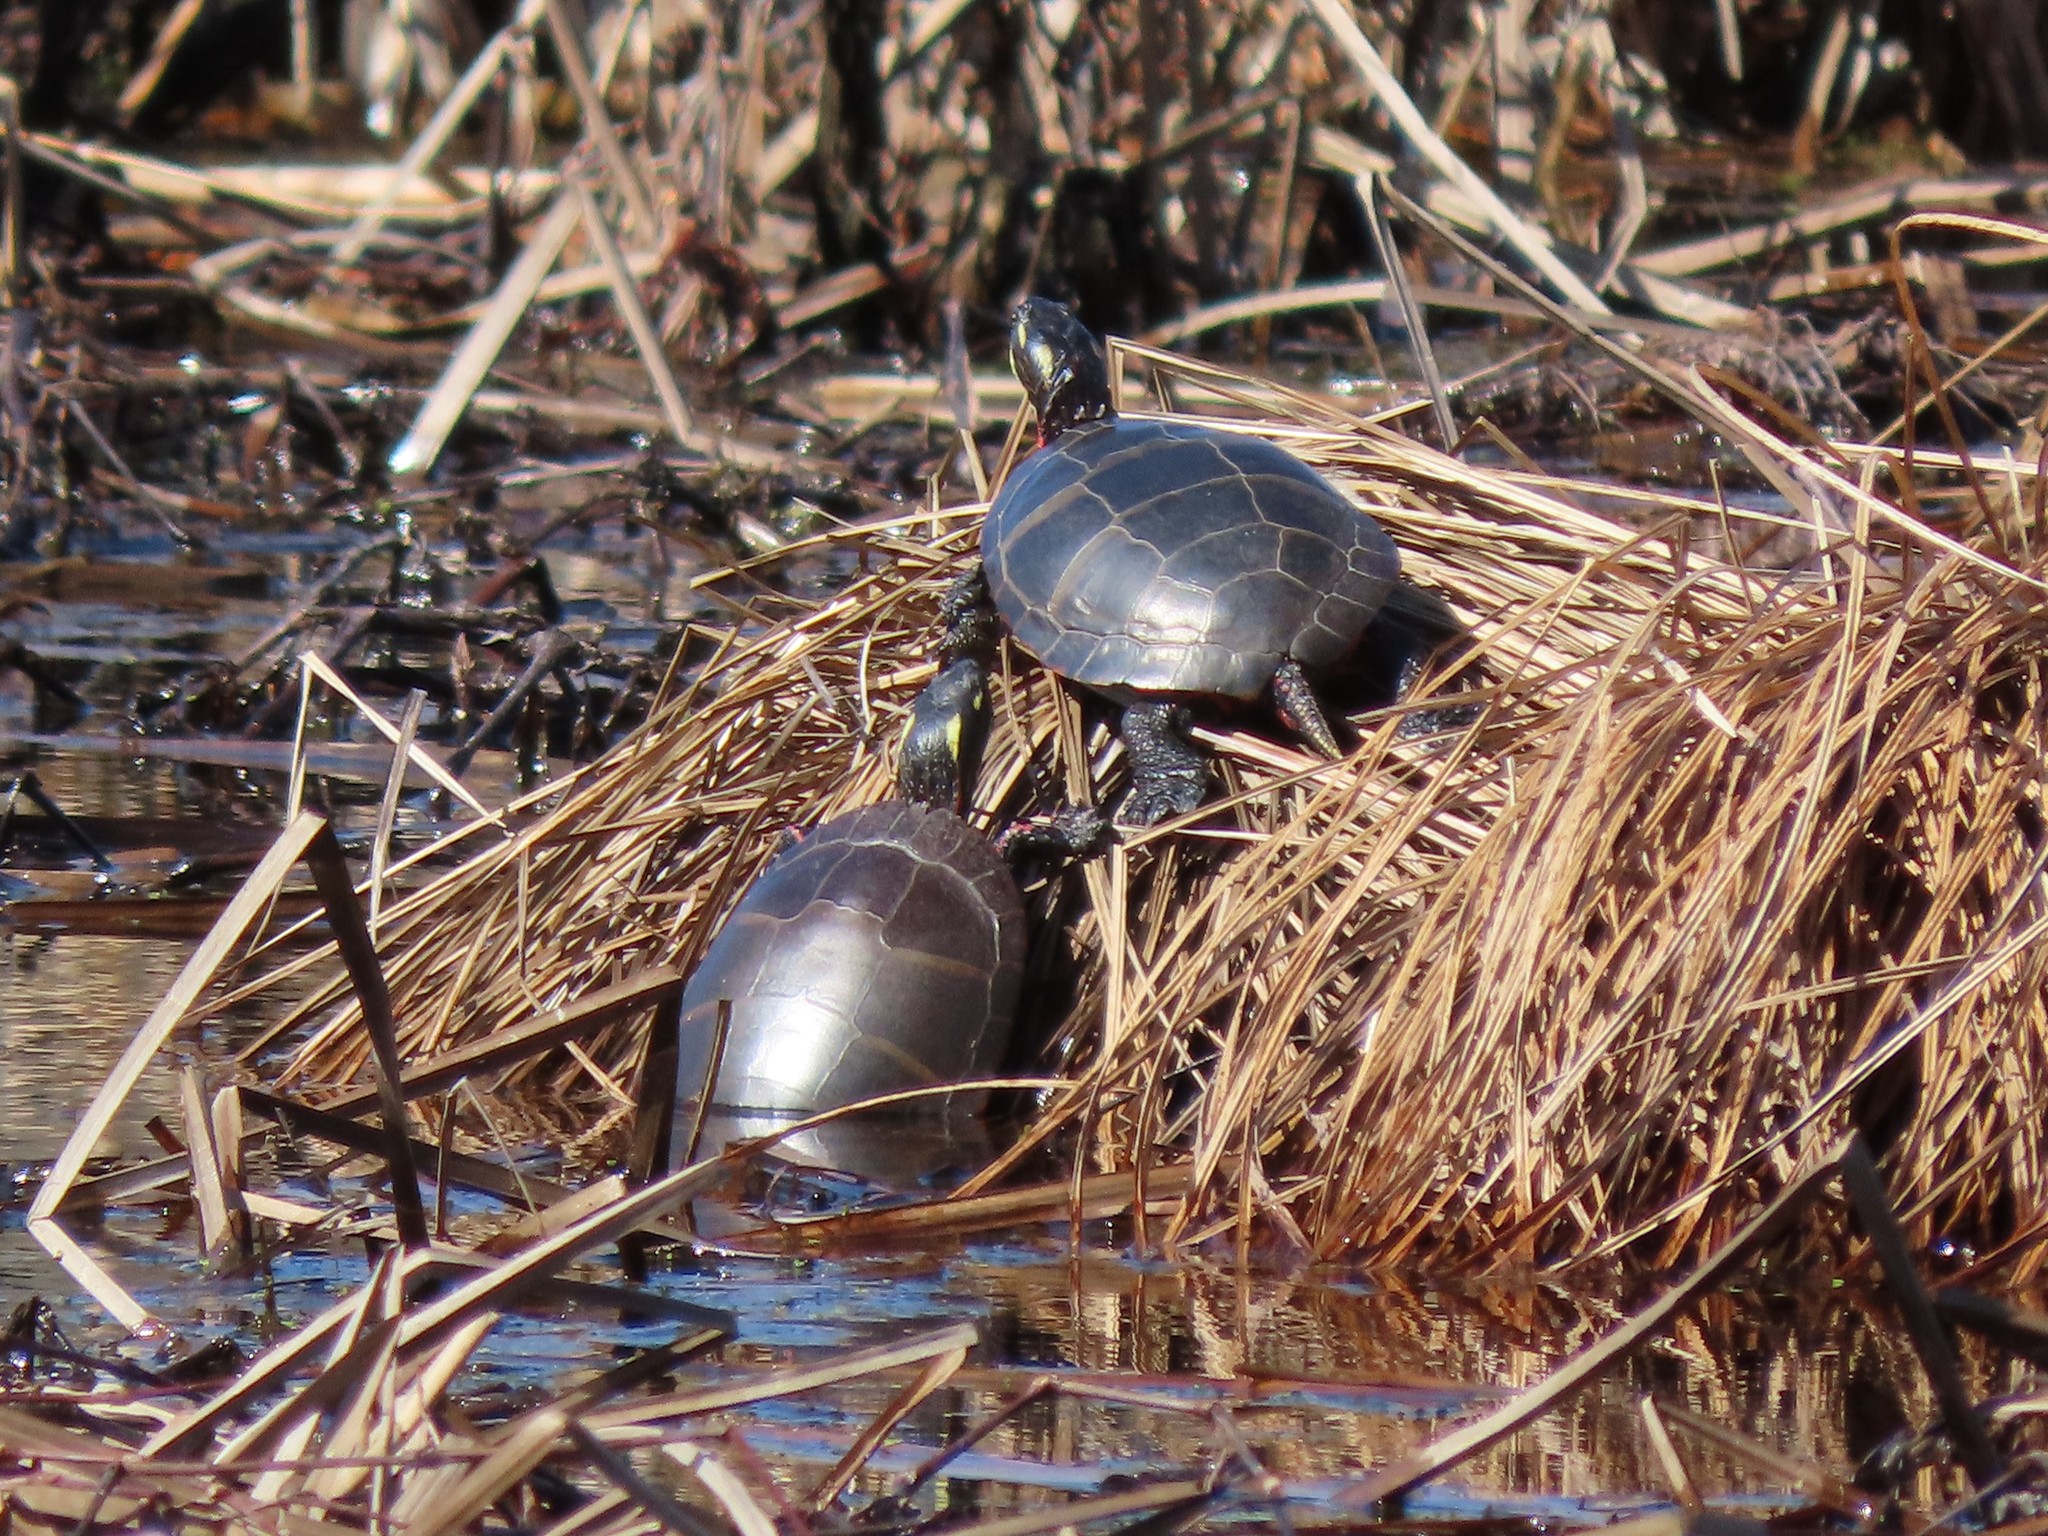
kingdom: Animalia
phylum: Chordata
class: Testudines
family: Emydidae
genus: Chrysemys
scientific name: Chrysemys picta
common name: Painted turtle
